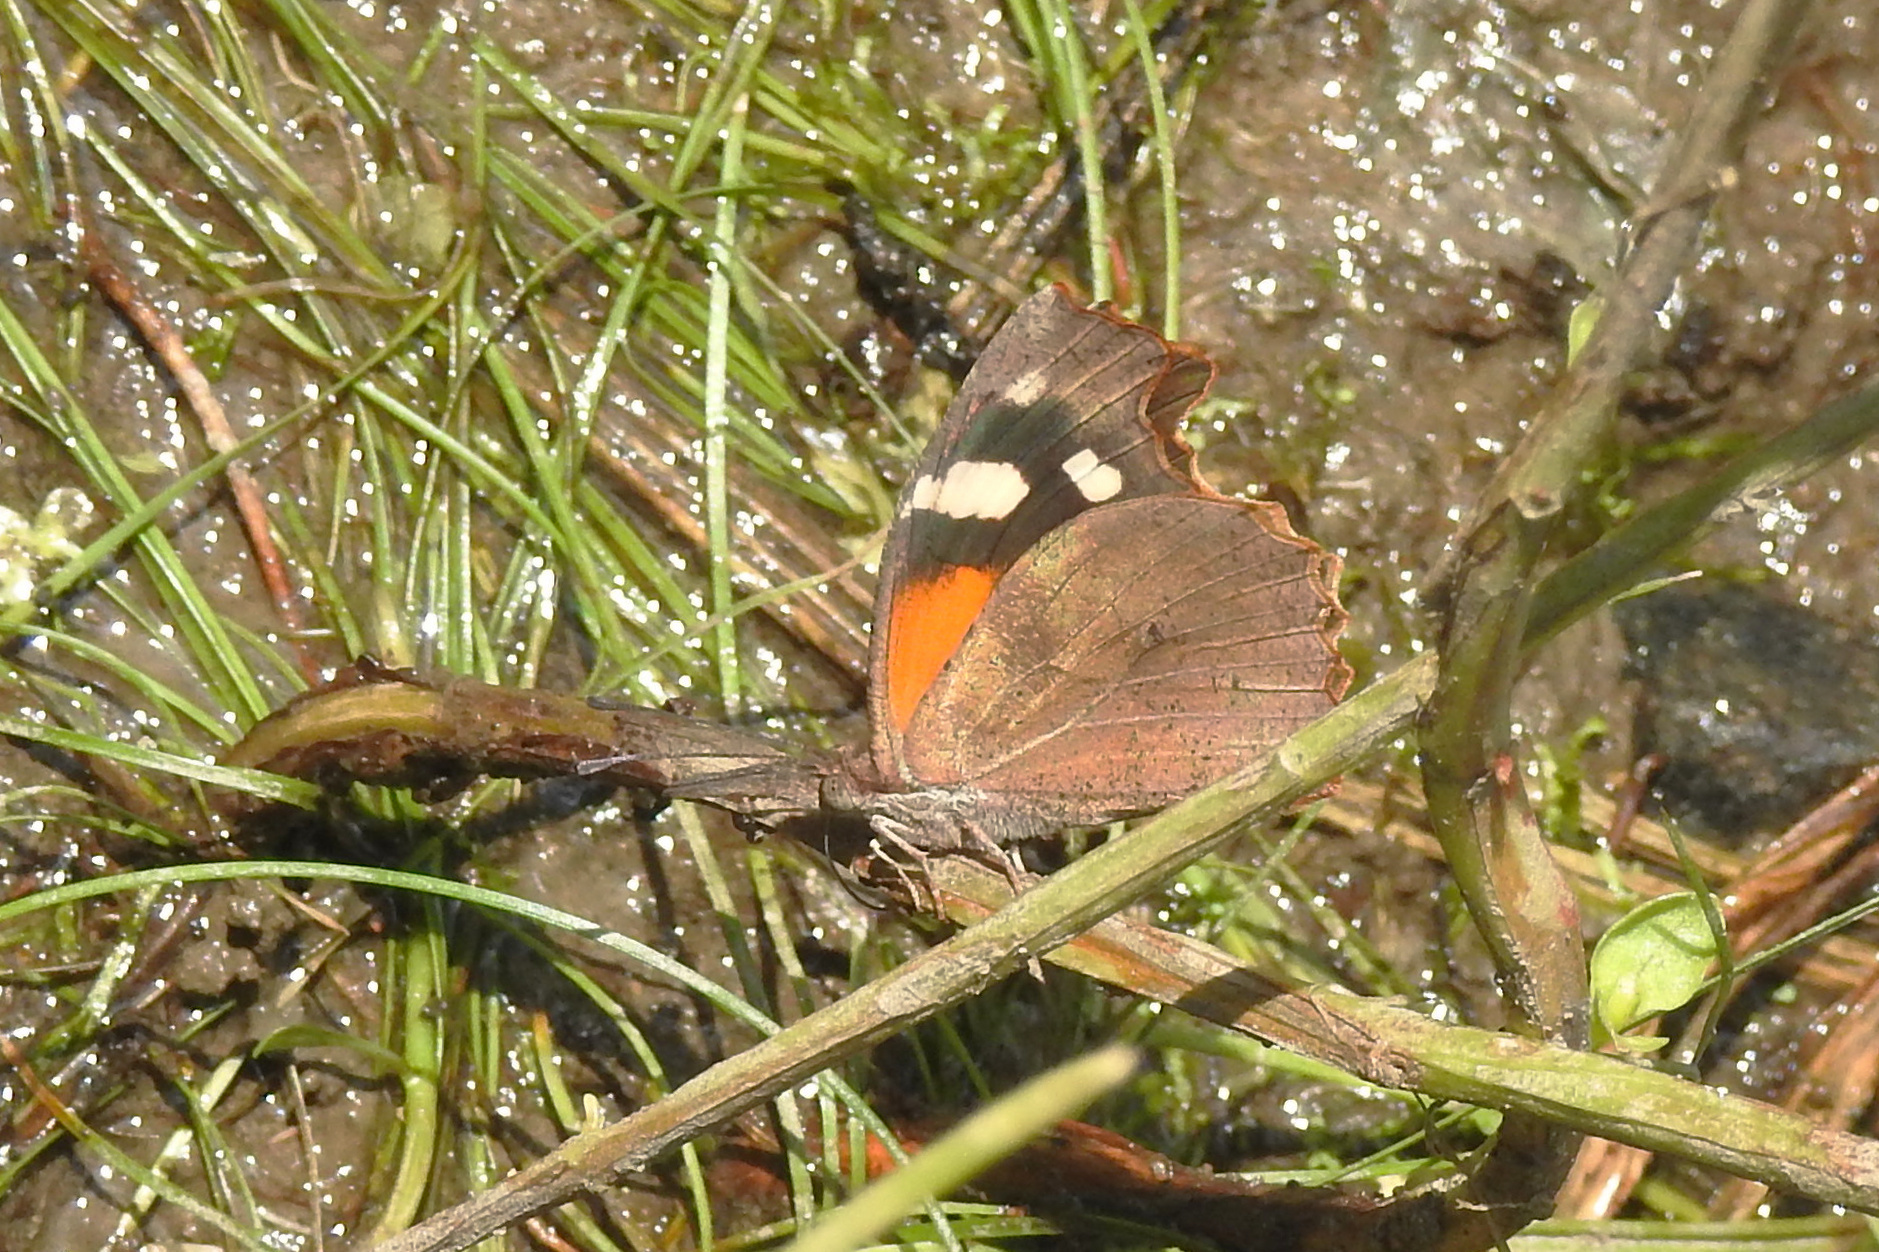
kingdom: Animalia
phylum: Arthropoda
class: Insecta
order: Lepidoptera
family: Nymphalidae
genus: Libytheana
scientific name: Libytheana carinenta
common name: American snout
